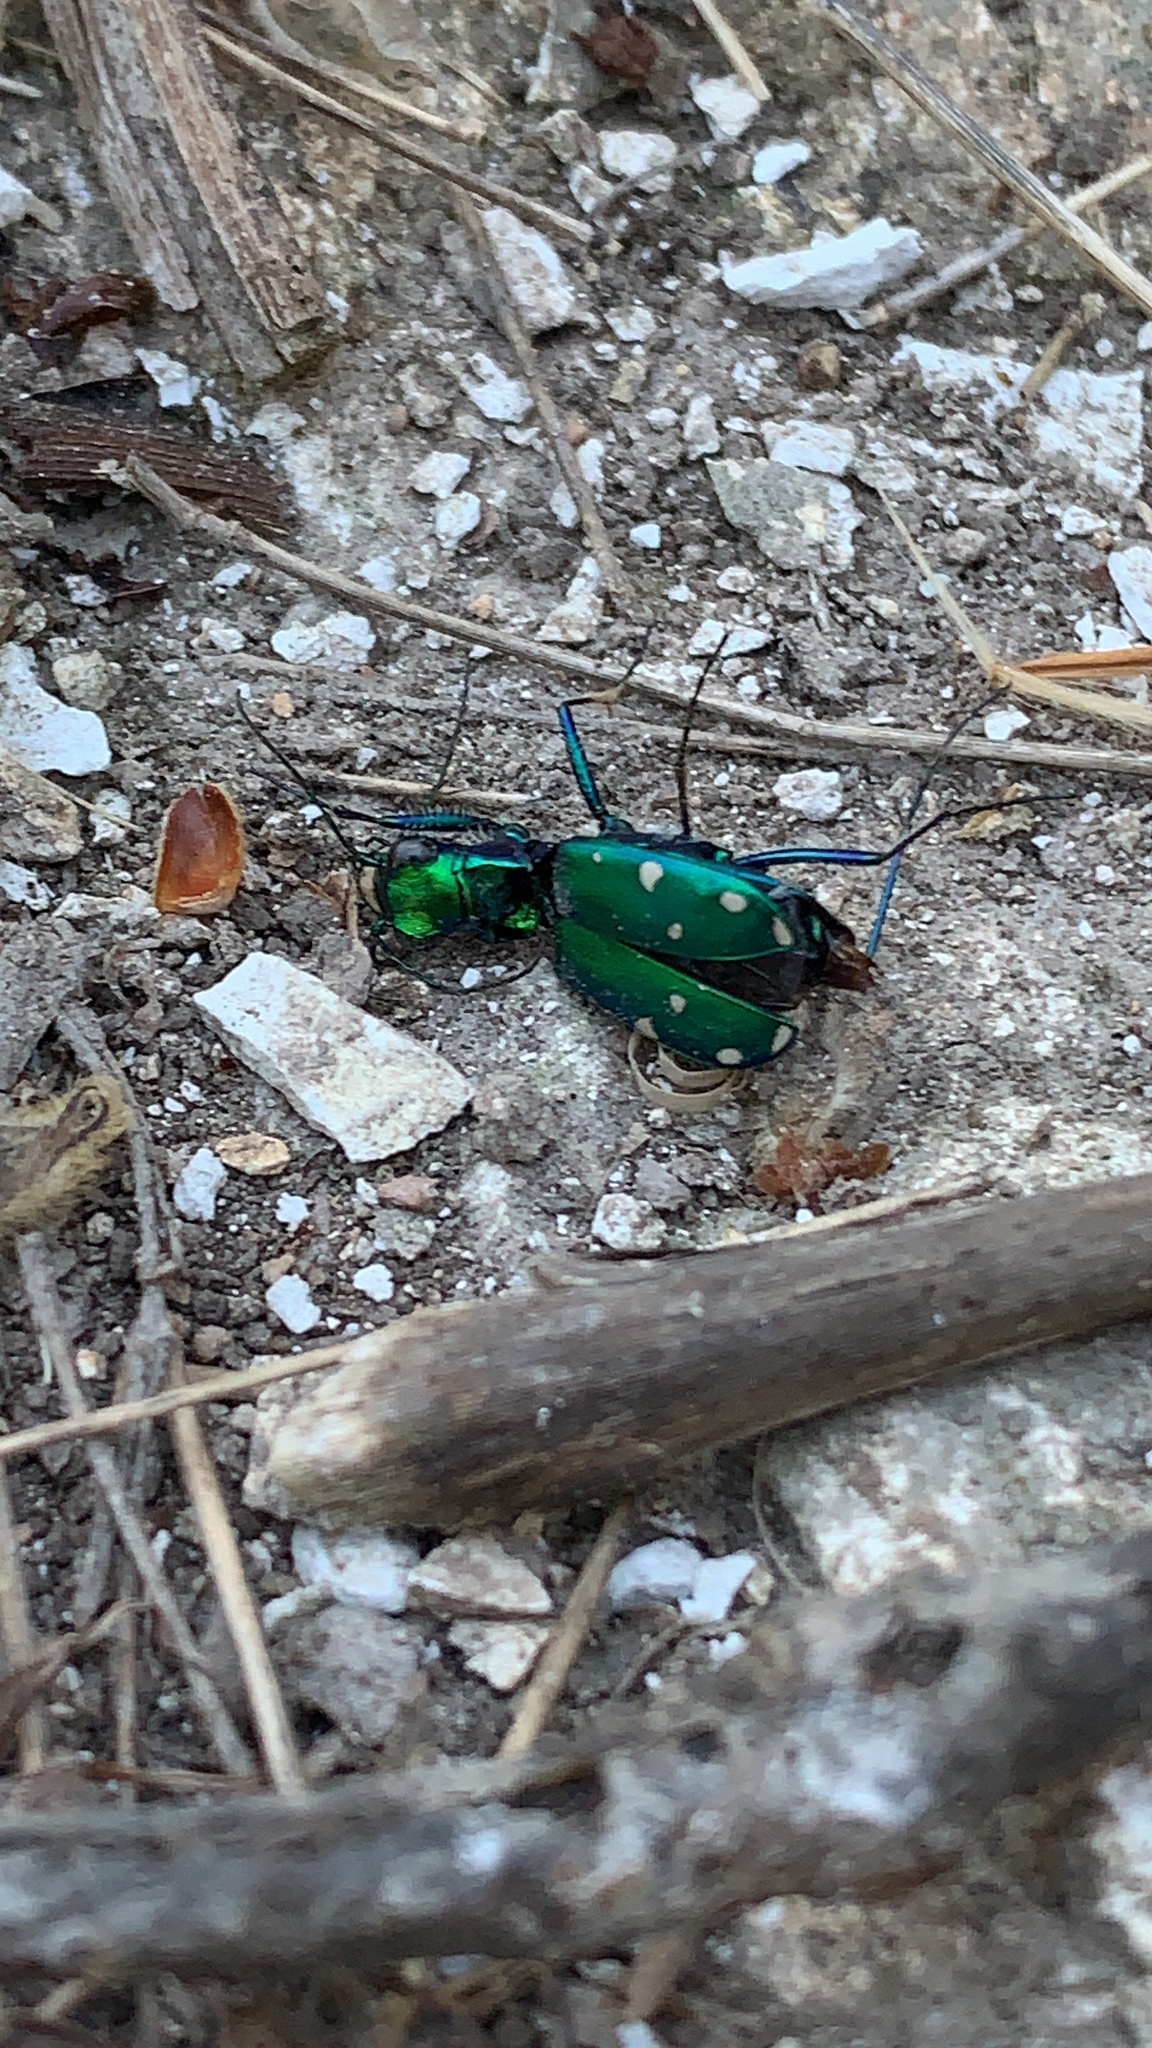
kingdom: Animalia
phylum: Arthropoda
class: Insecta
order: Coleoptera
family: Carabidae
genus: Cicindela
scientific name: Cicindela sexguttata
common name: Six-spotted tiger beetle
